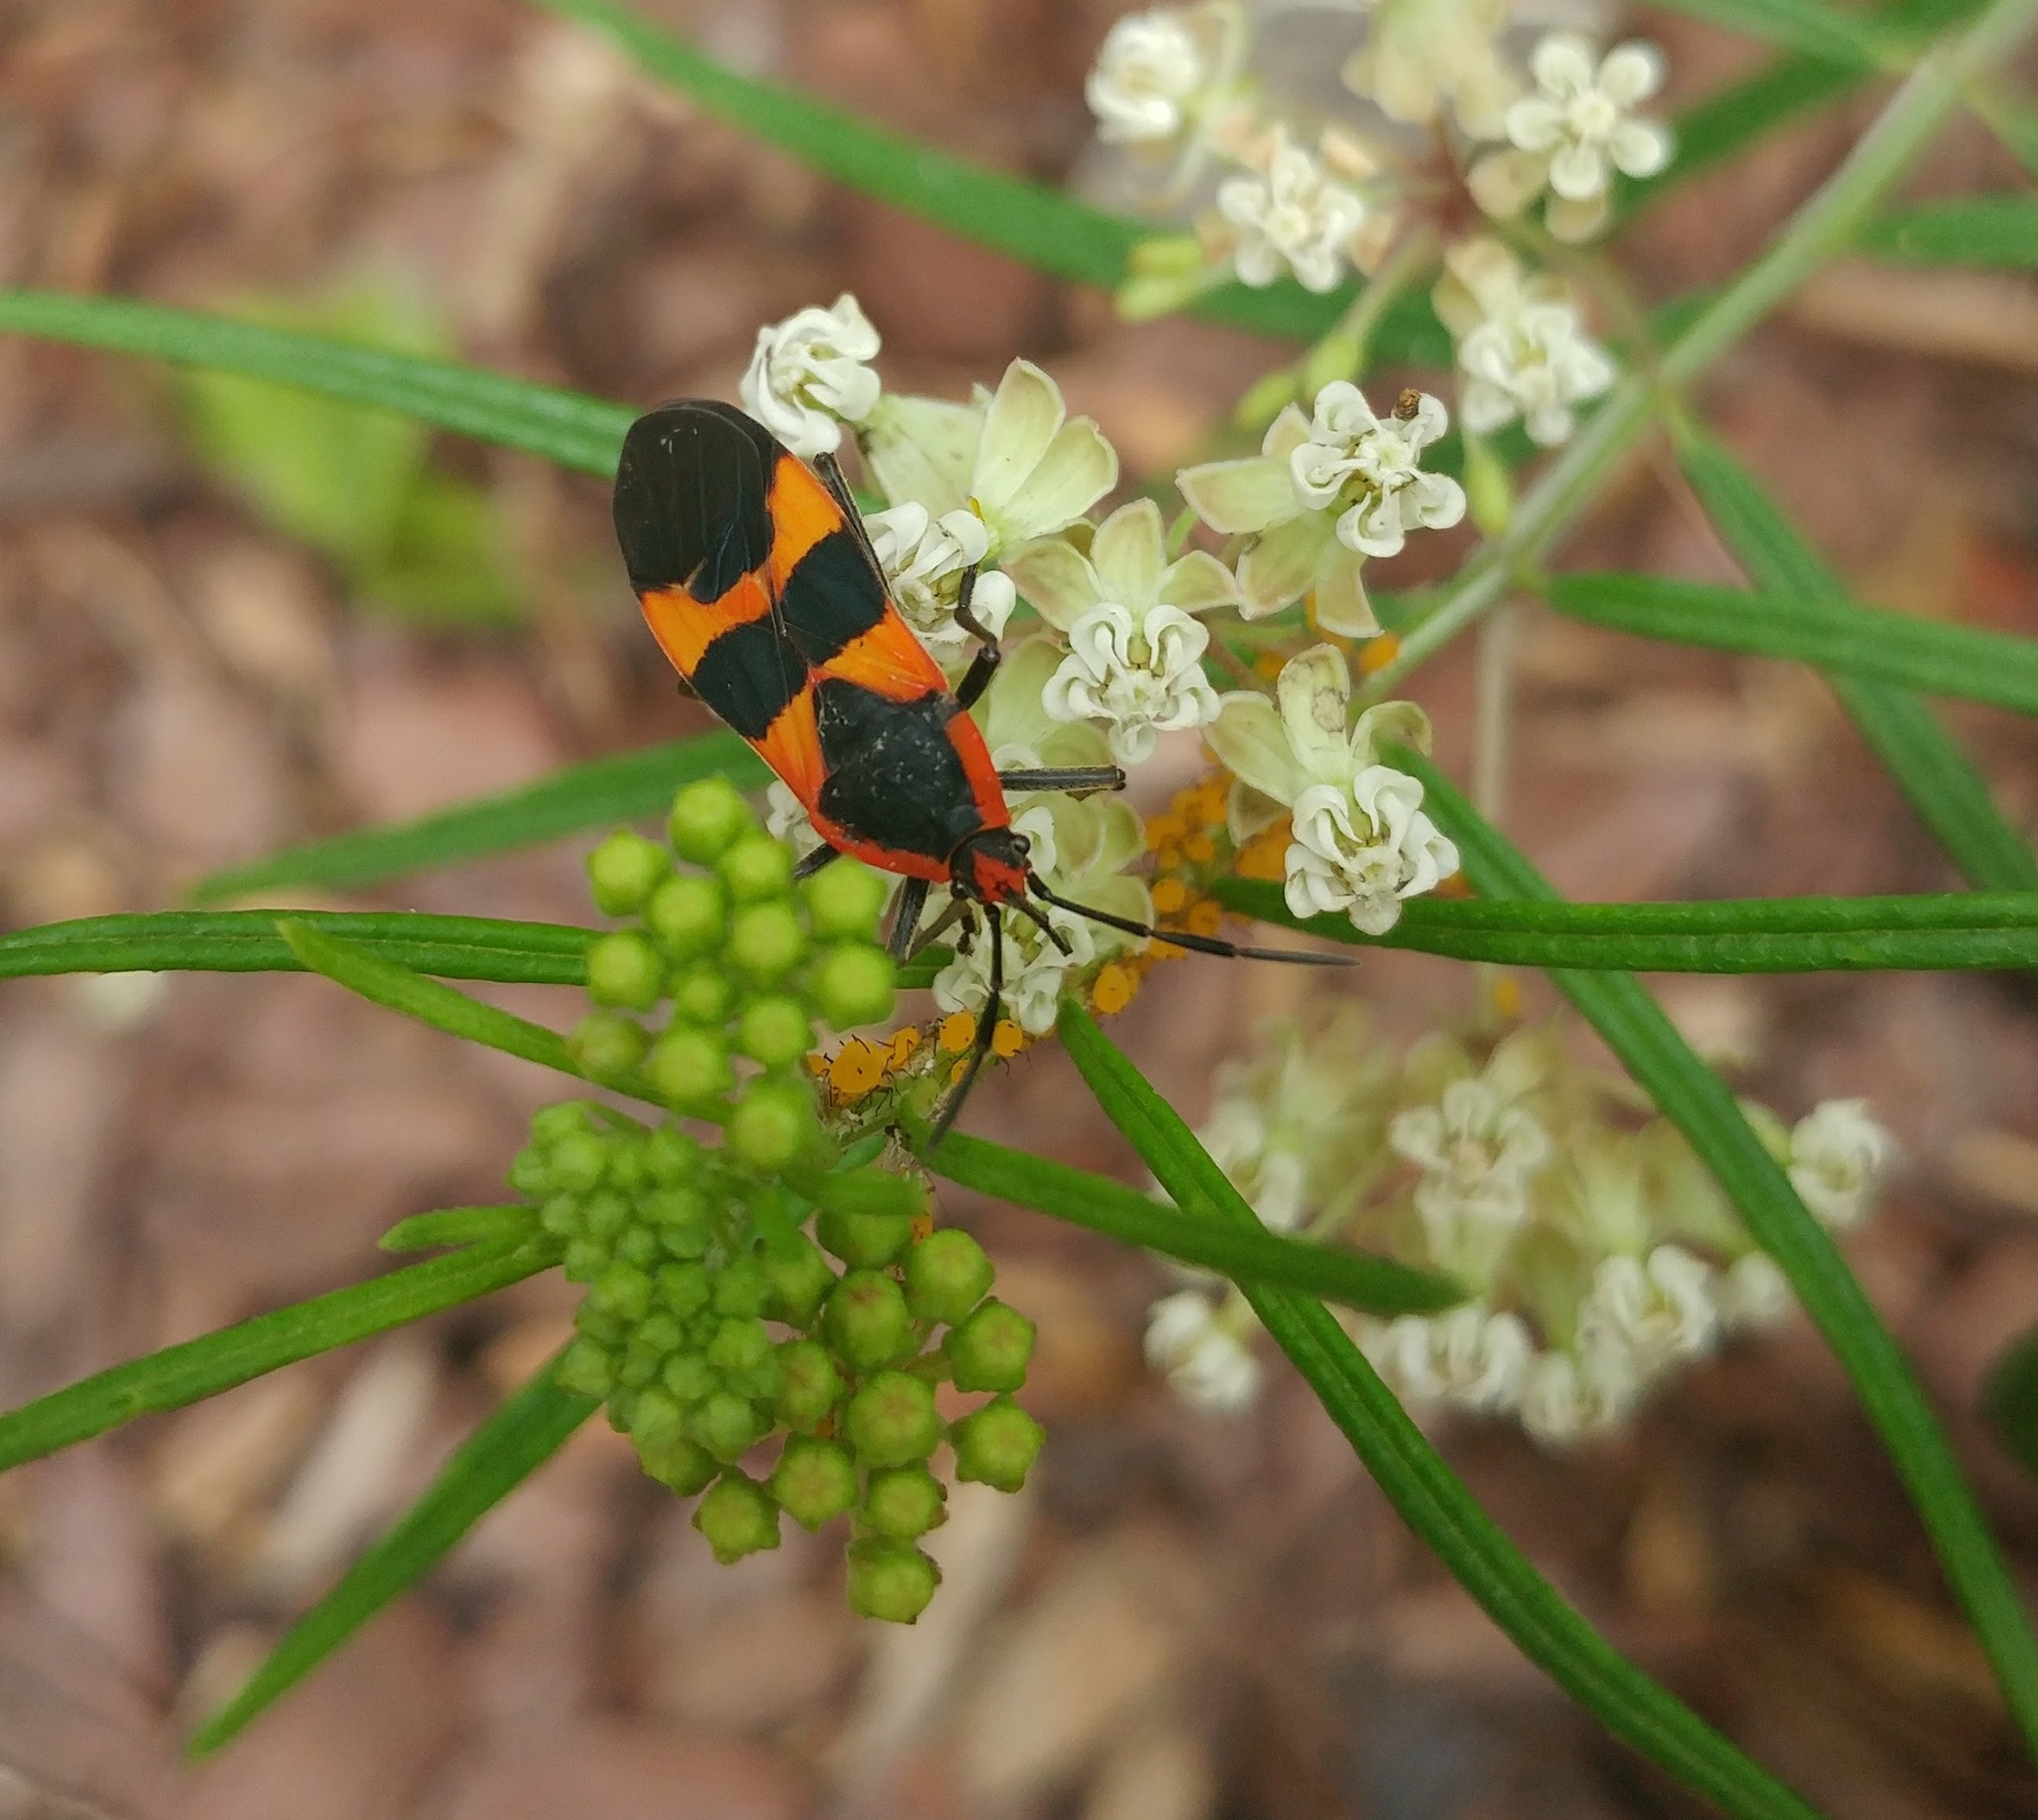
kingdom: Animalia
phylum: Arthropoda
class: Insecta
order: Hemiptera
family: Lygaeidae
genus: Oncopeltus
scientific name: Oncopeltus fasciatus
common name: Large milkweed bug
